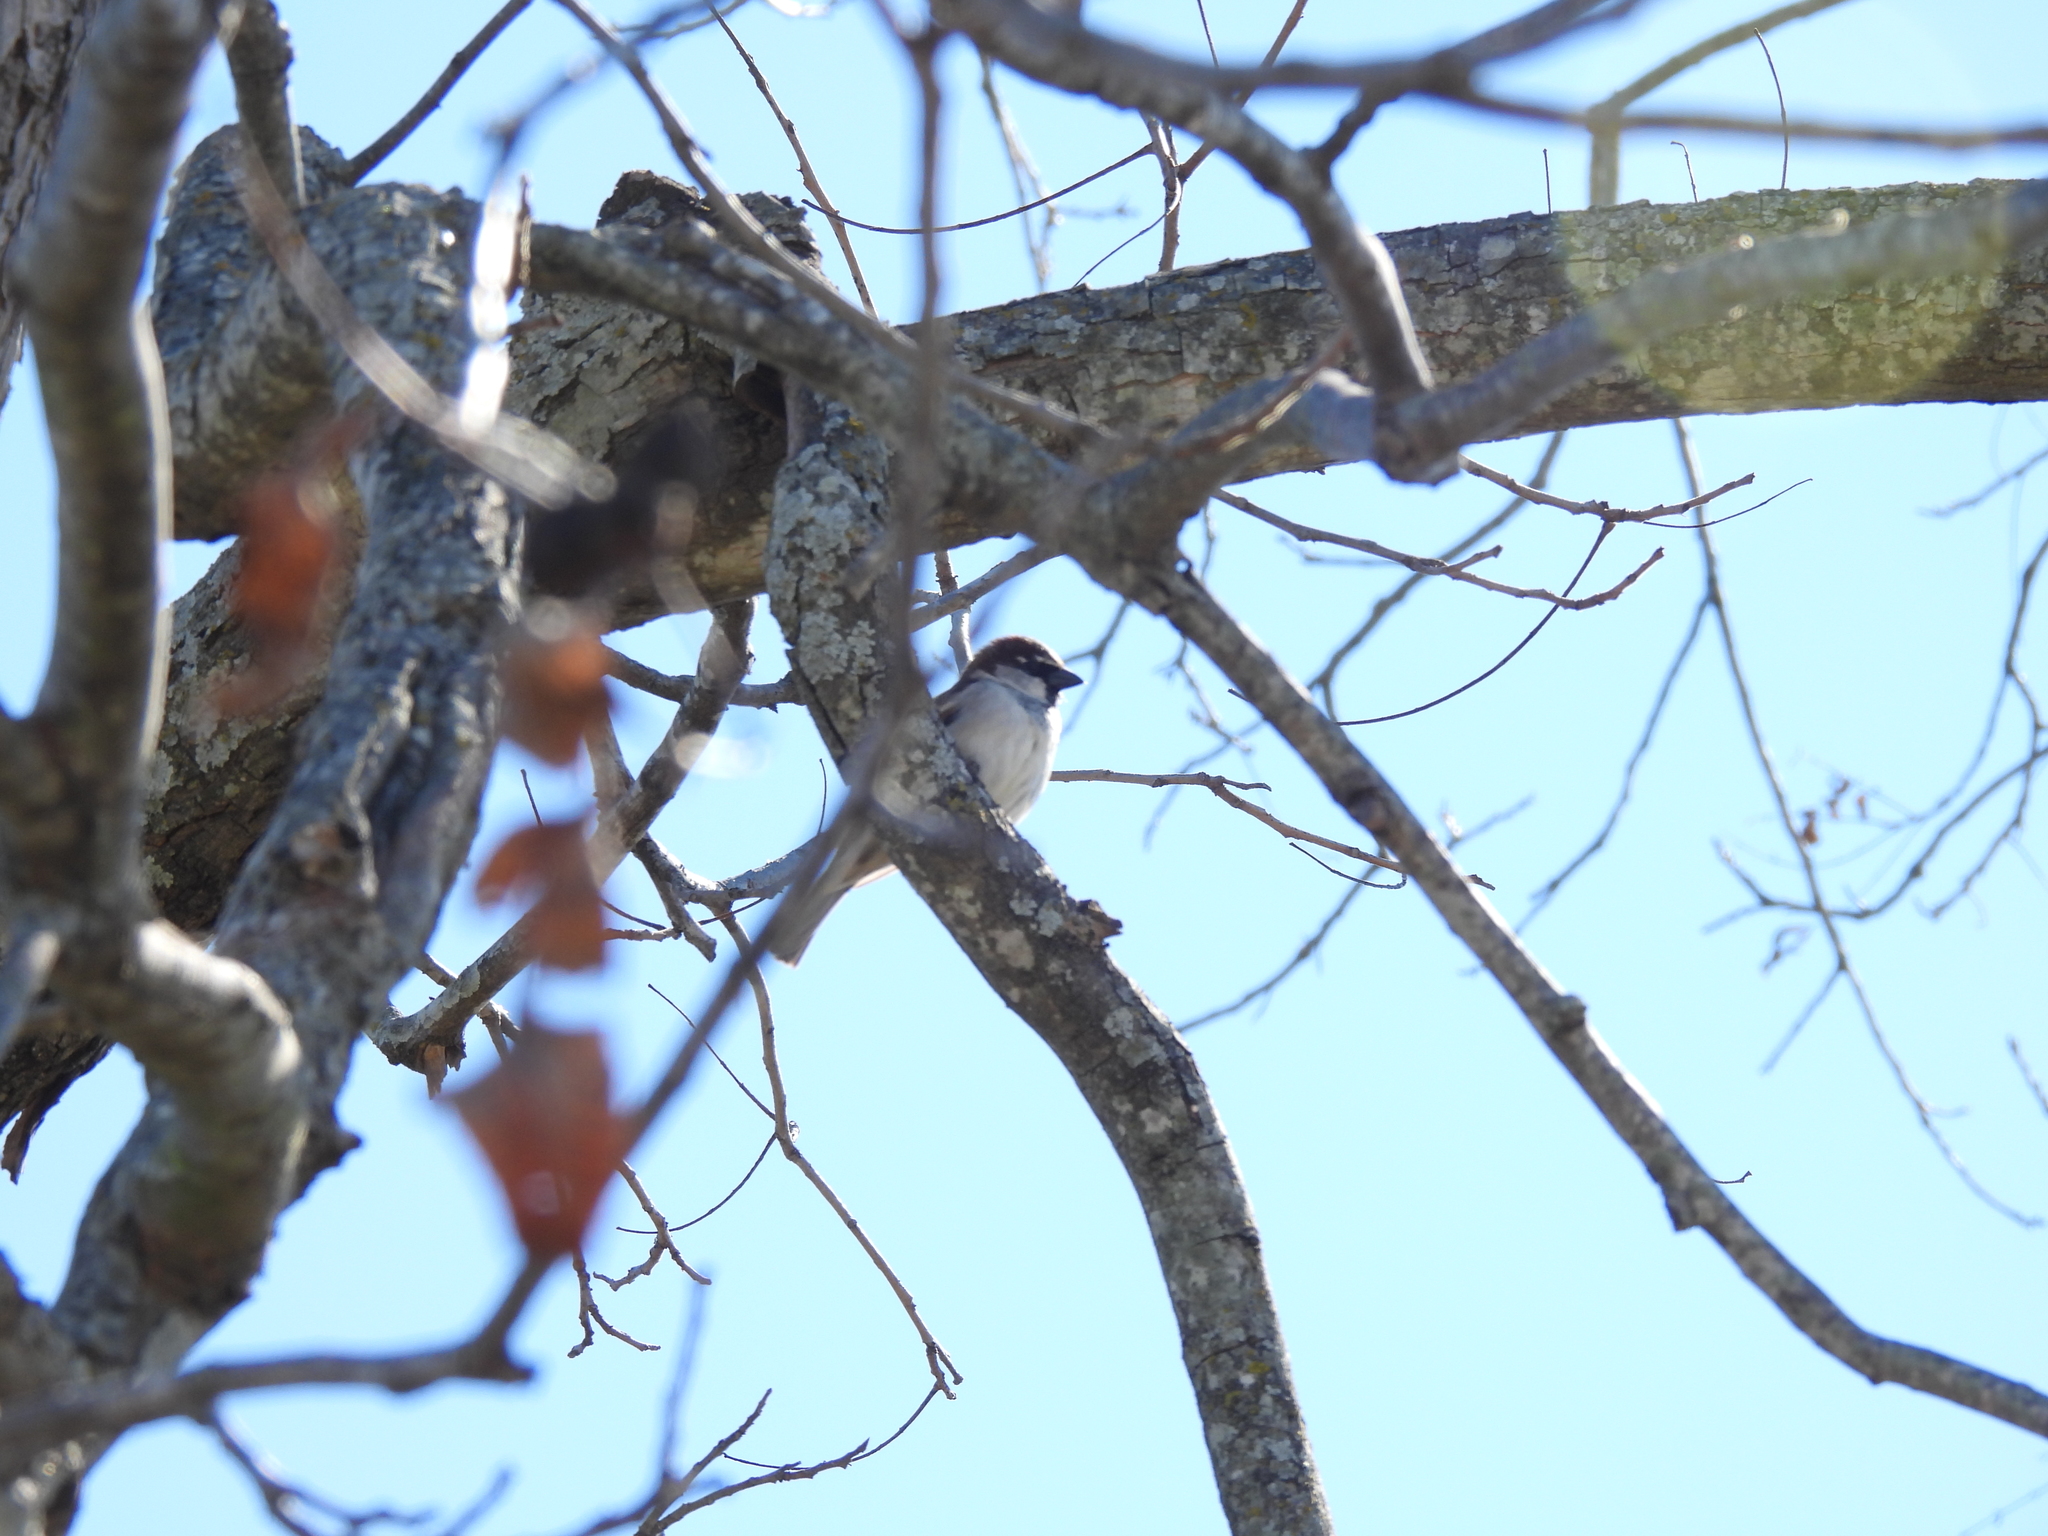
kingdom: Animalia
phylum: Chordata
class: Aves
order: Passeriformes
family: Passeridae
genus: Passer
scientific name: Passer domesticus
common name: House sparrow
